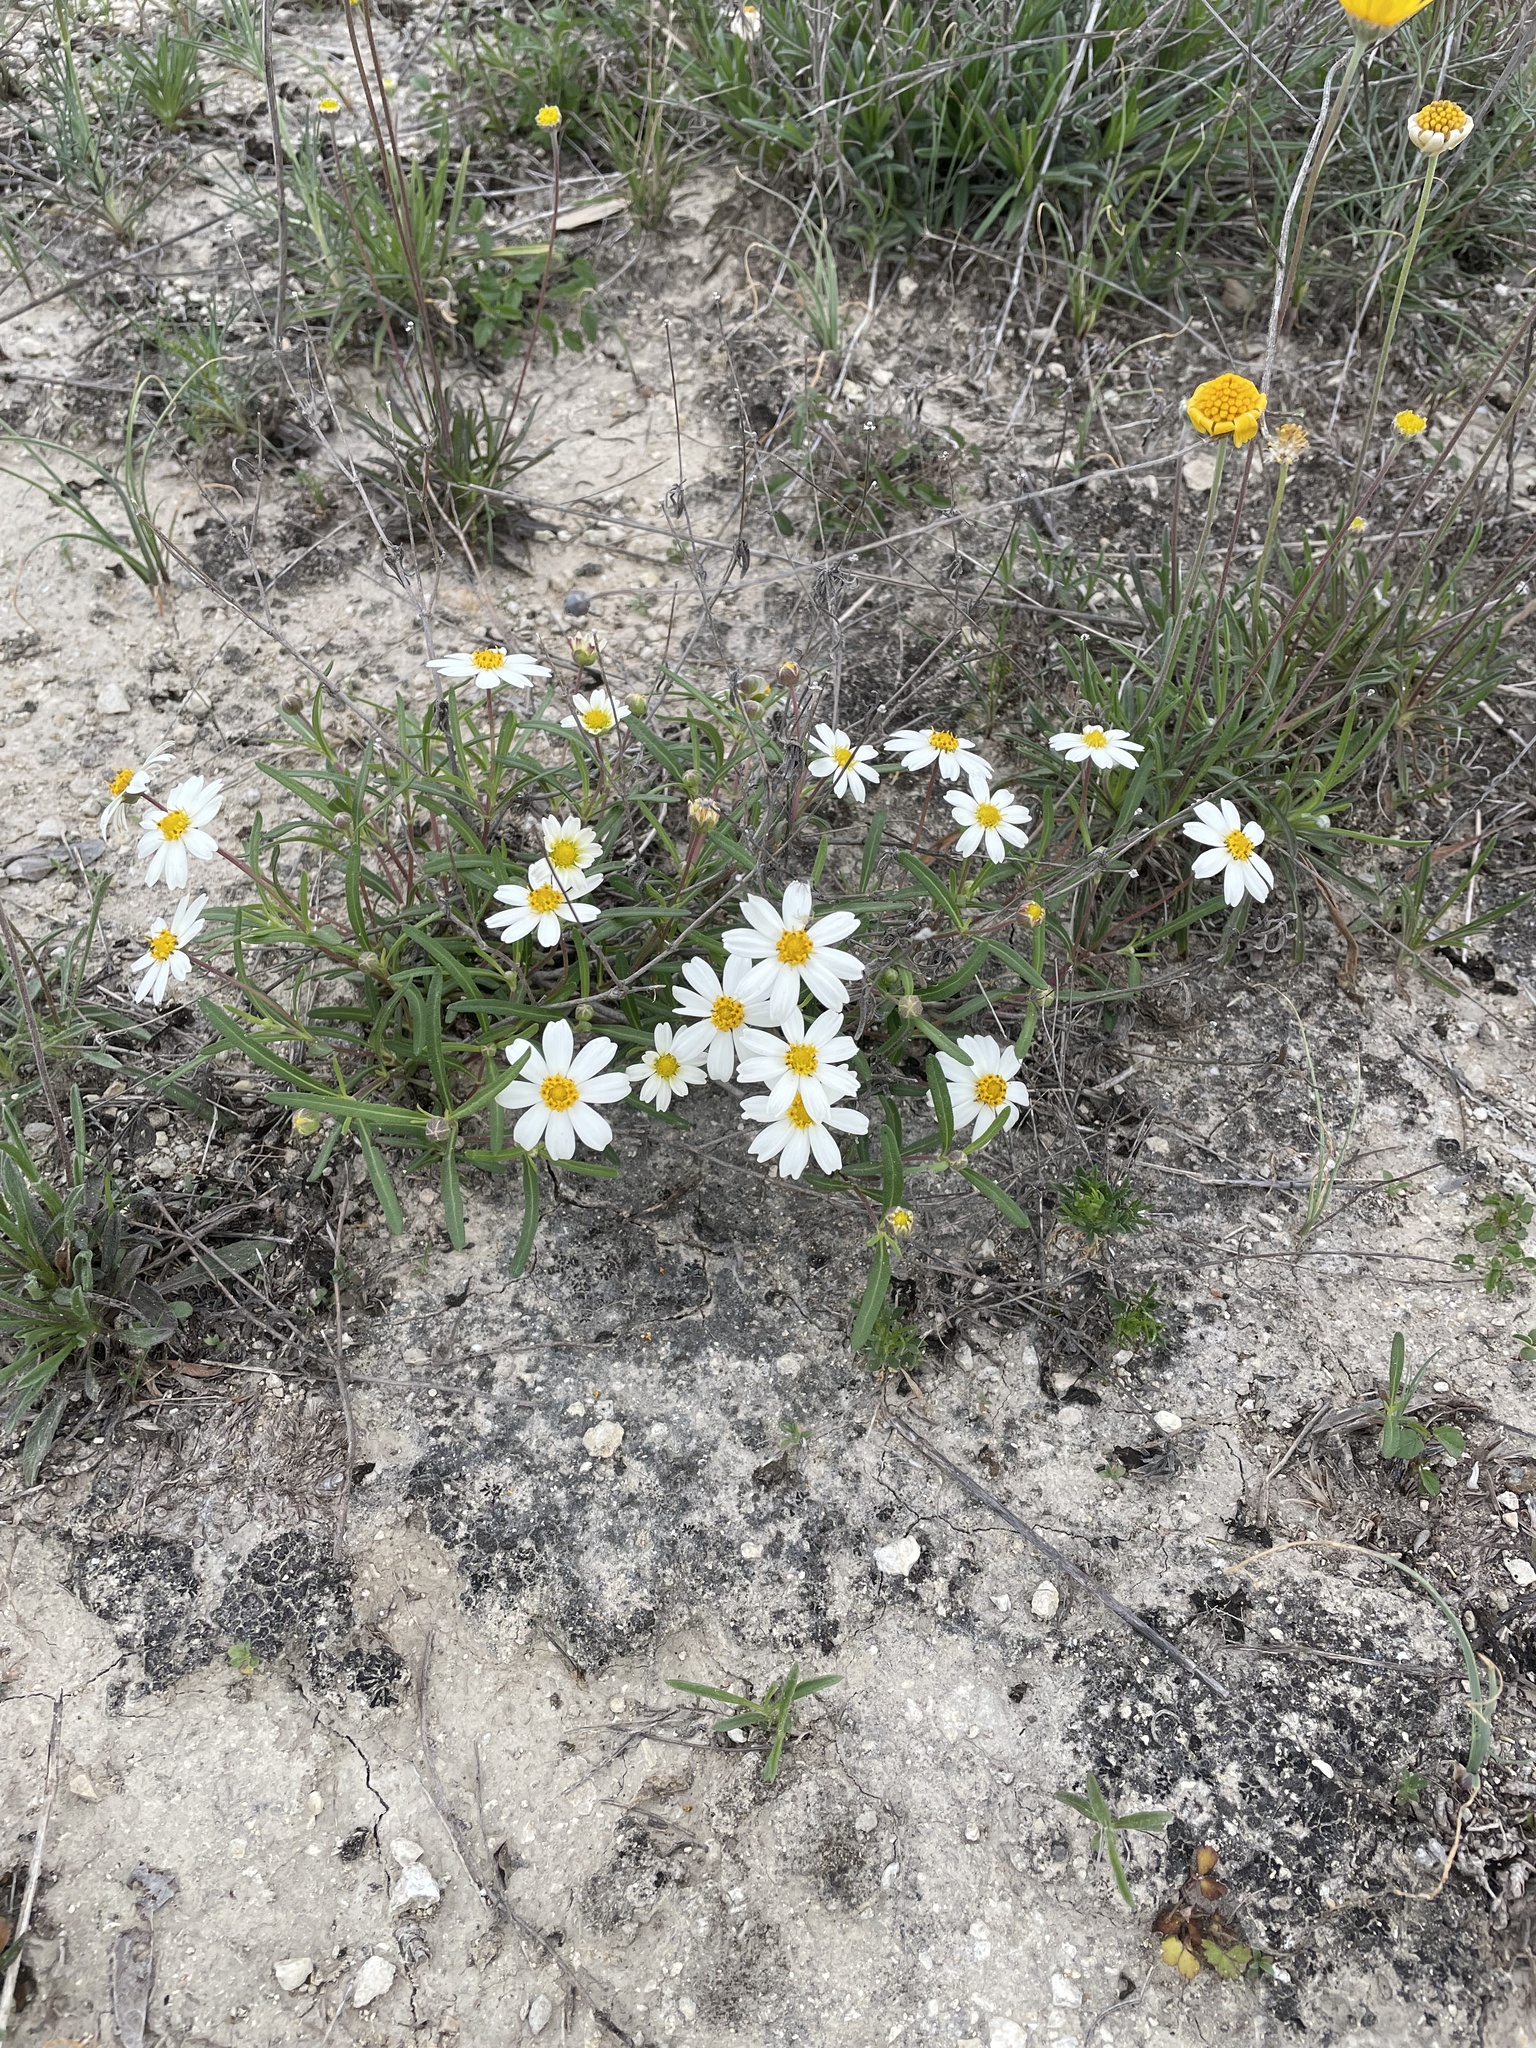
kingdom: Plantae
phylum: Tracheophyta
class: Magnoliopsida
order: Asterales
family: Asteraceae
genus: Melampodium
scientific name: Melampodium leucanthum
